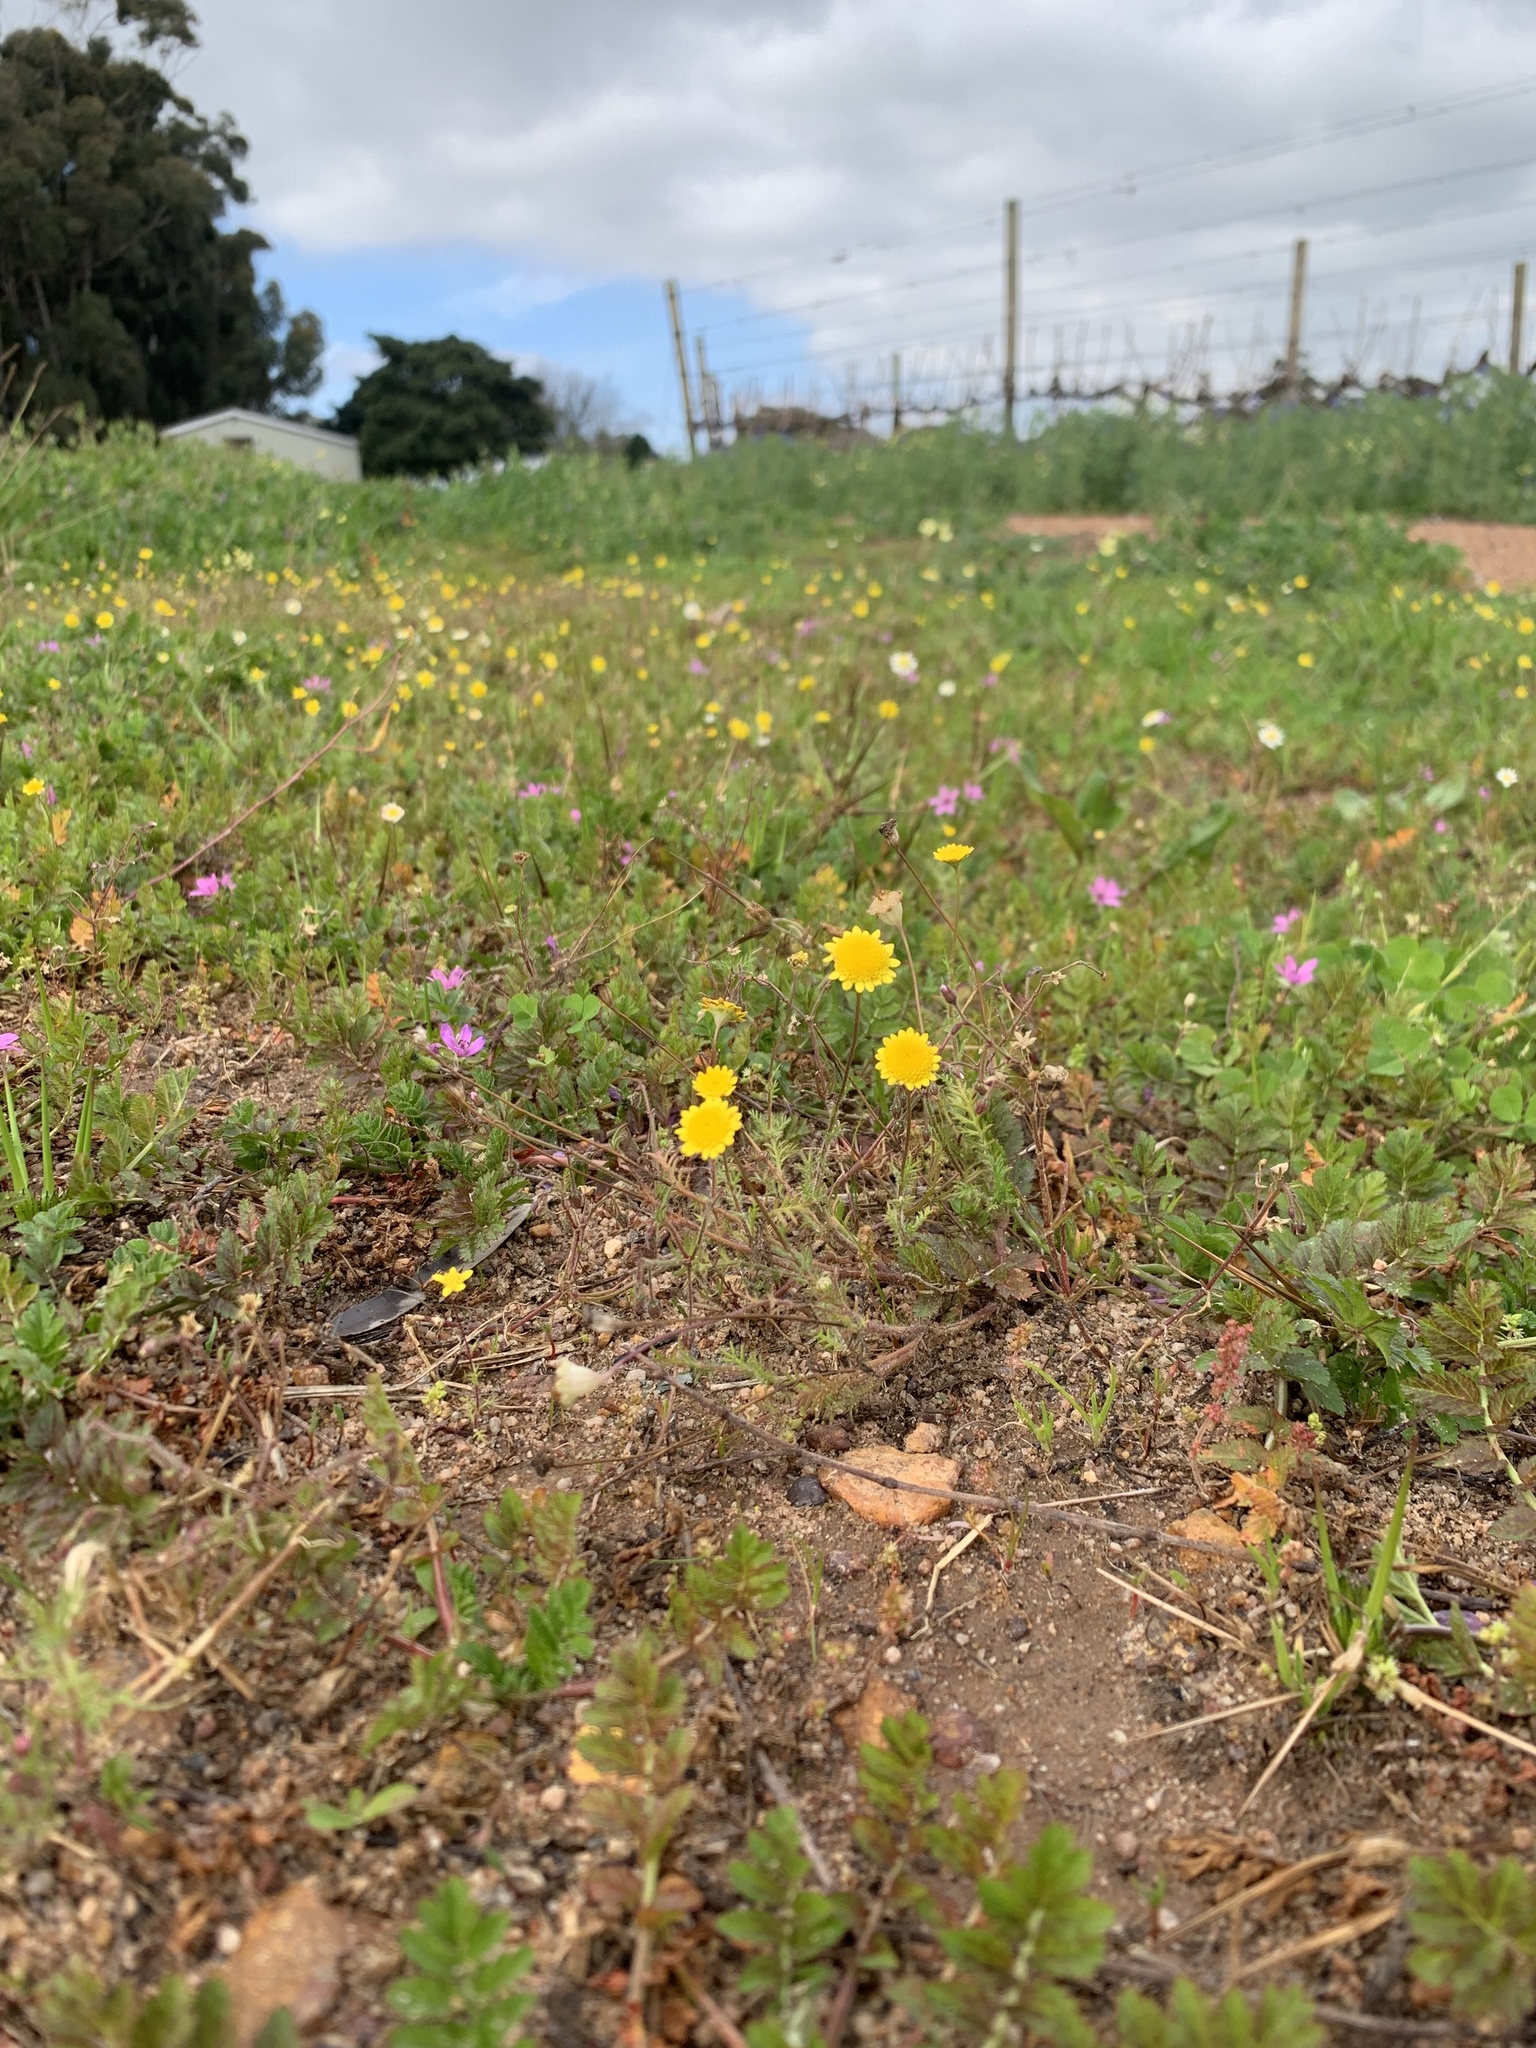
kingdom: Plantae
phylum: Tracheophyta
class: Magnoliopsida
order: Asterales
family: Asteraceae
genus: Cotula
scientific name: Cotula pruinosa
